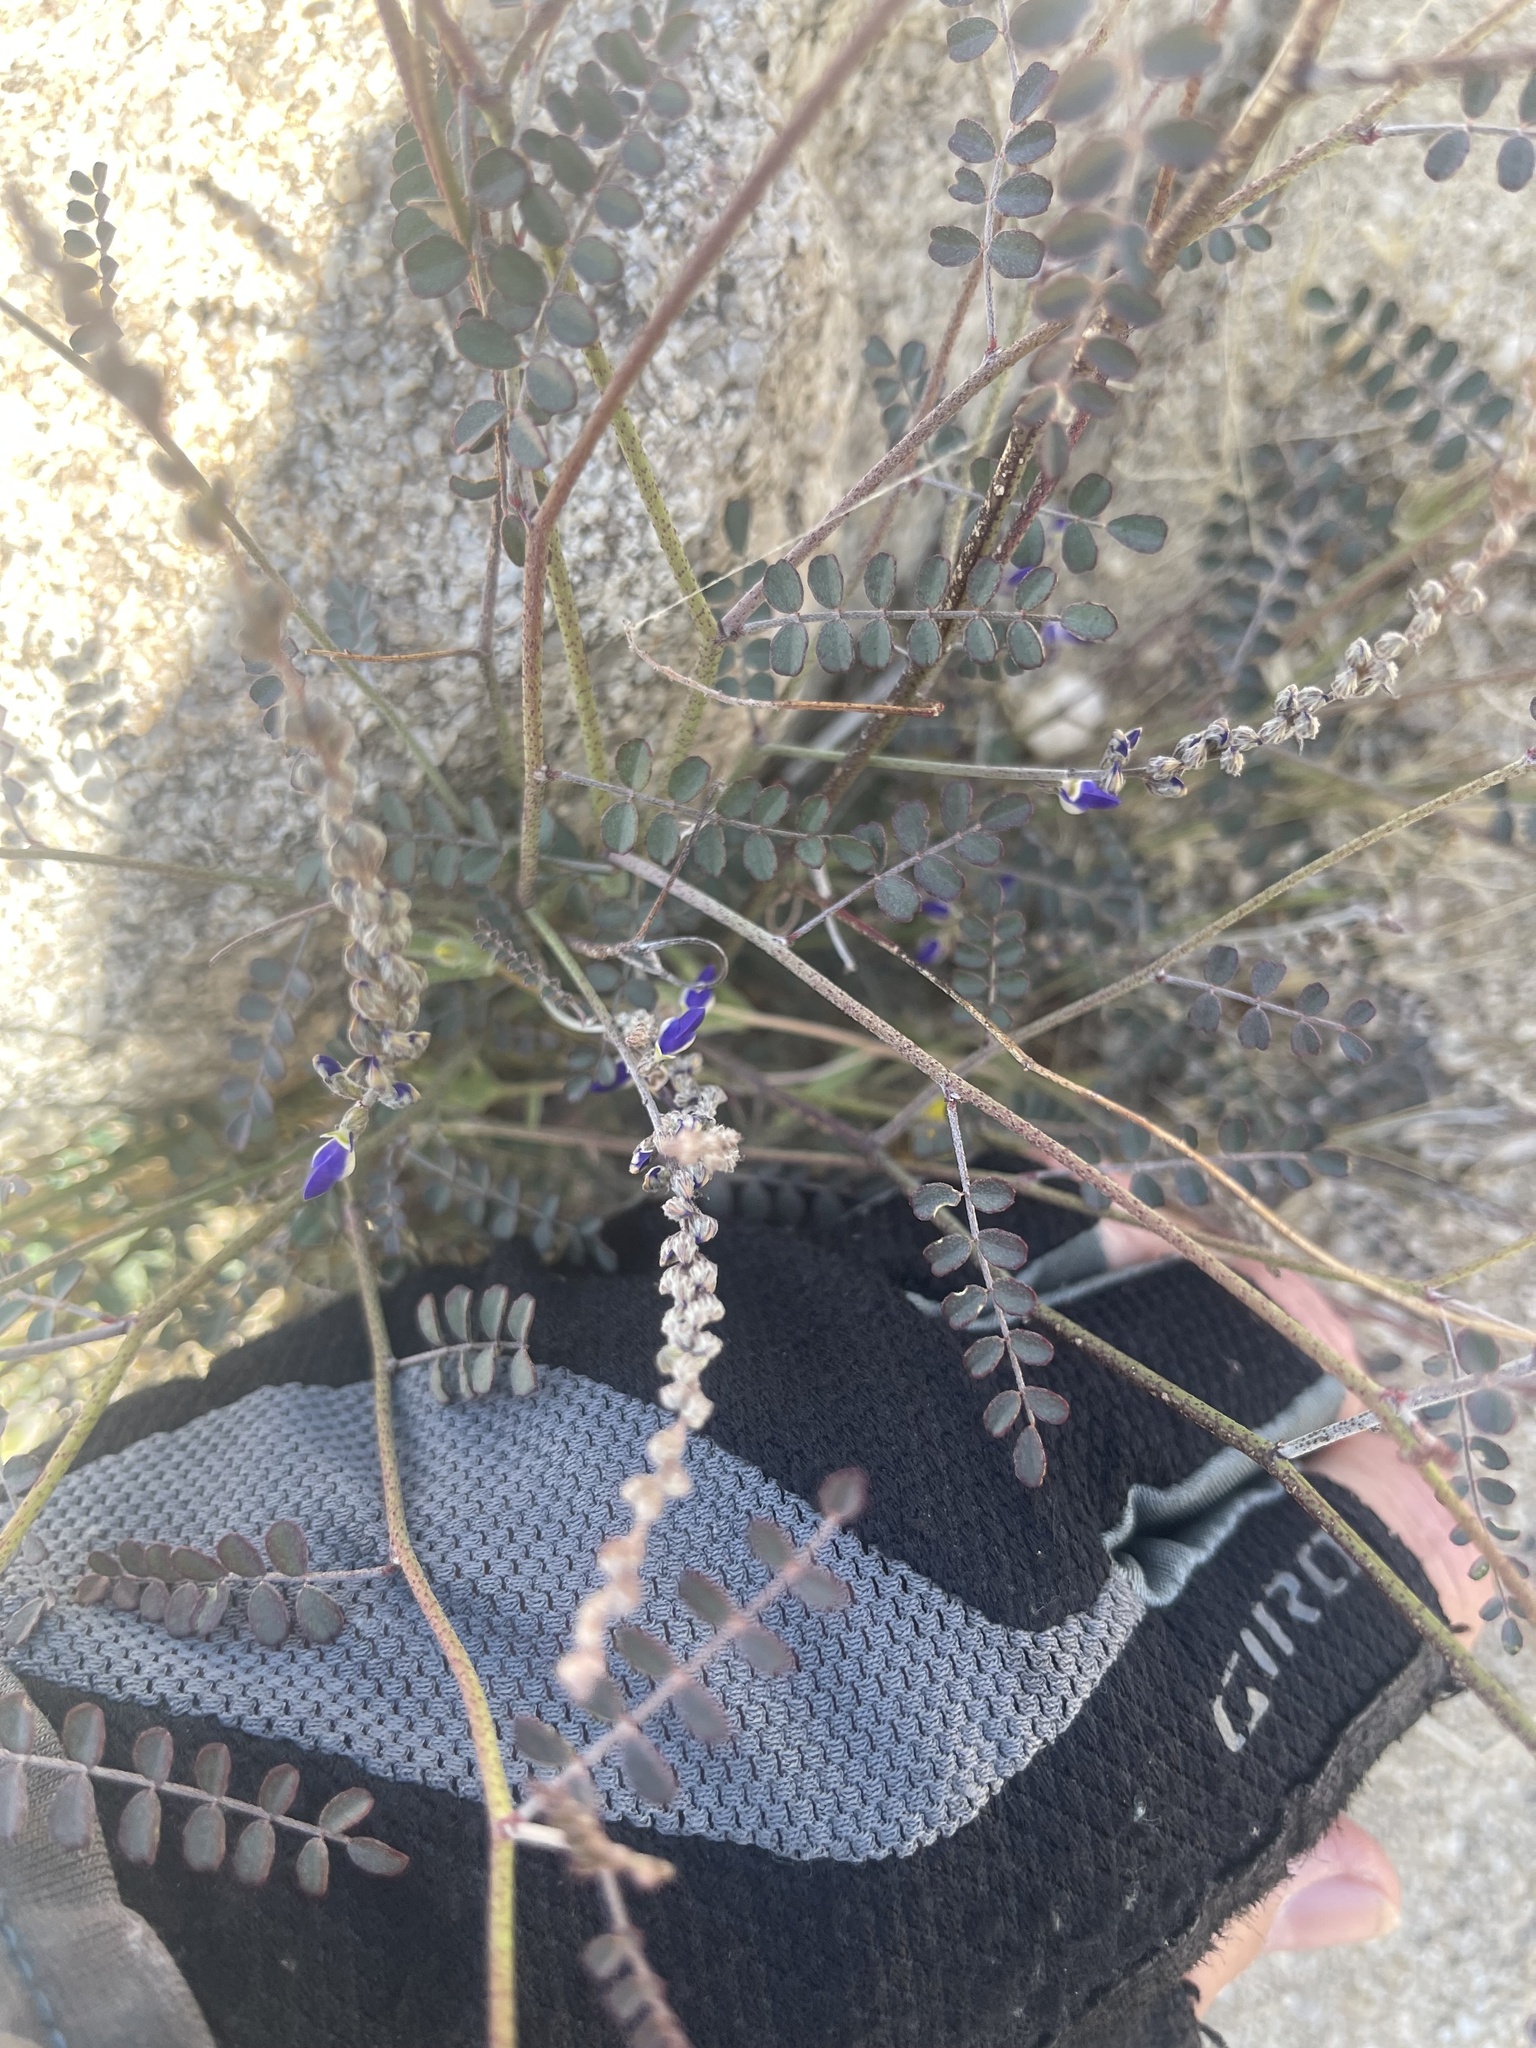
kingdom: Plantae
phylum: Tracheophyta
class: Magnoliopsida
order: Fabales
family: Fabaceae
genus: Marina
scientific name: Marina parryi
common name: Parry's marina
